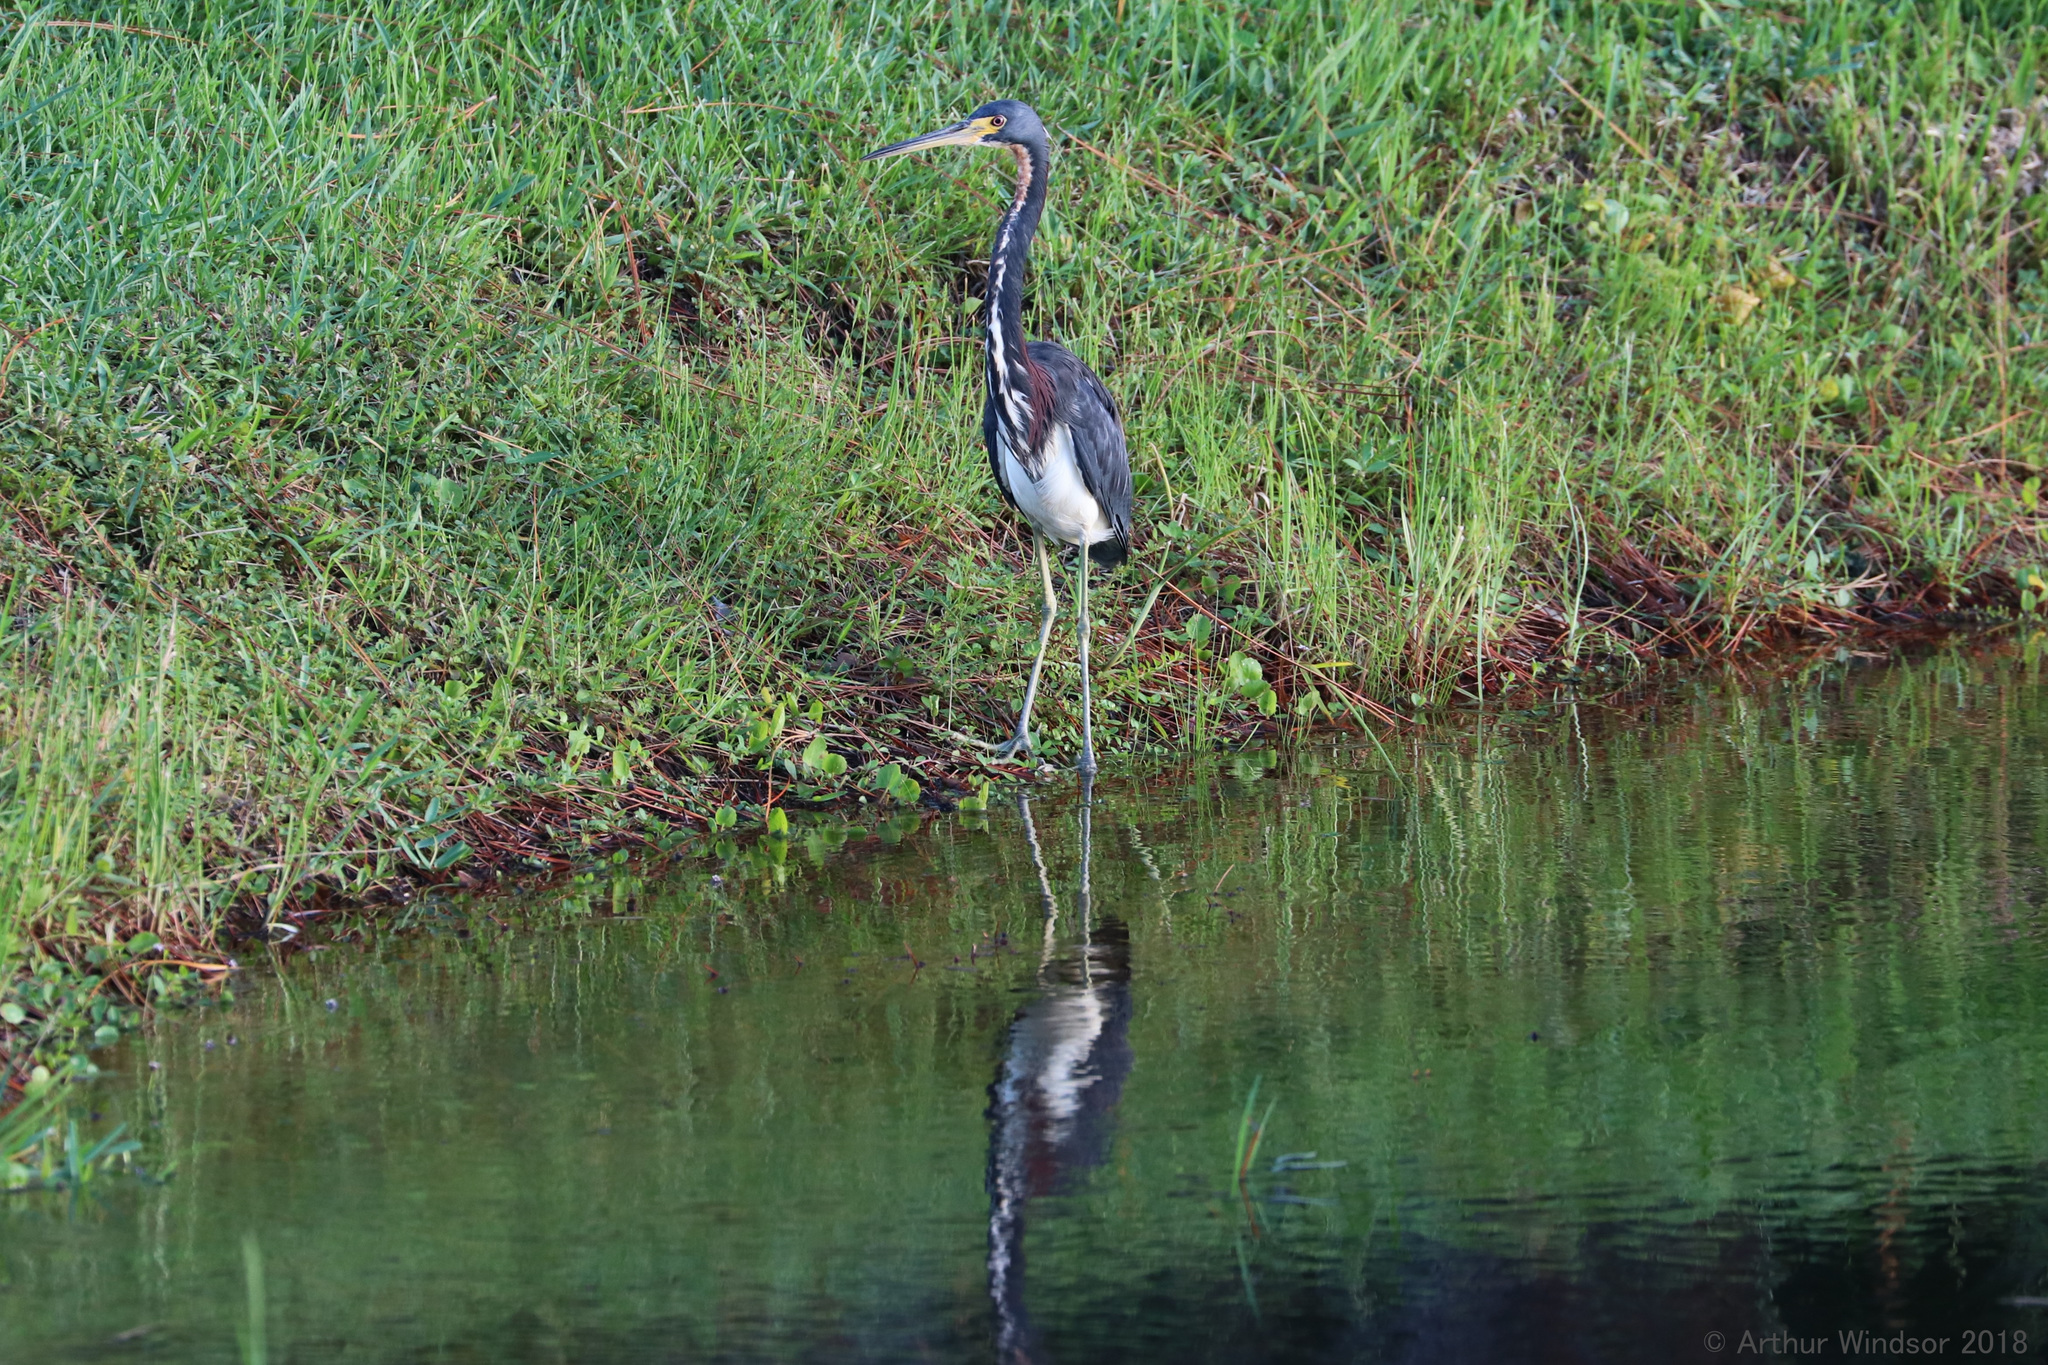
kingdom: Animalia
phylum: Chordata
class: Aves
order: Pelecaniformes
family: Ardeidae
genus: Egretta
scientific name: Egretta tricolor
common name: Tricolored heron
